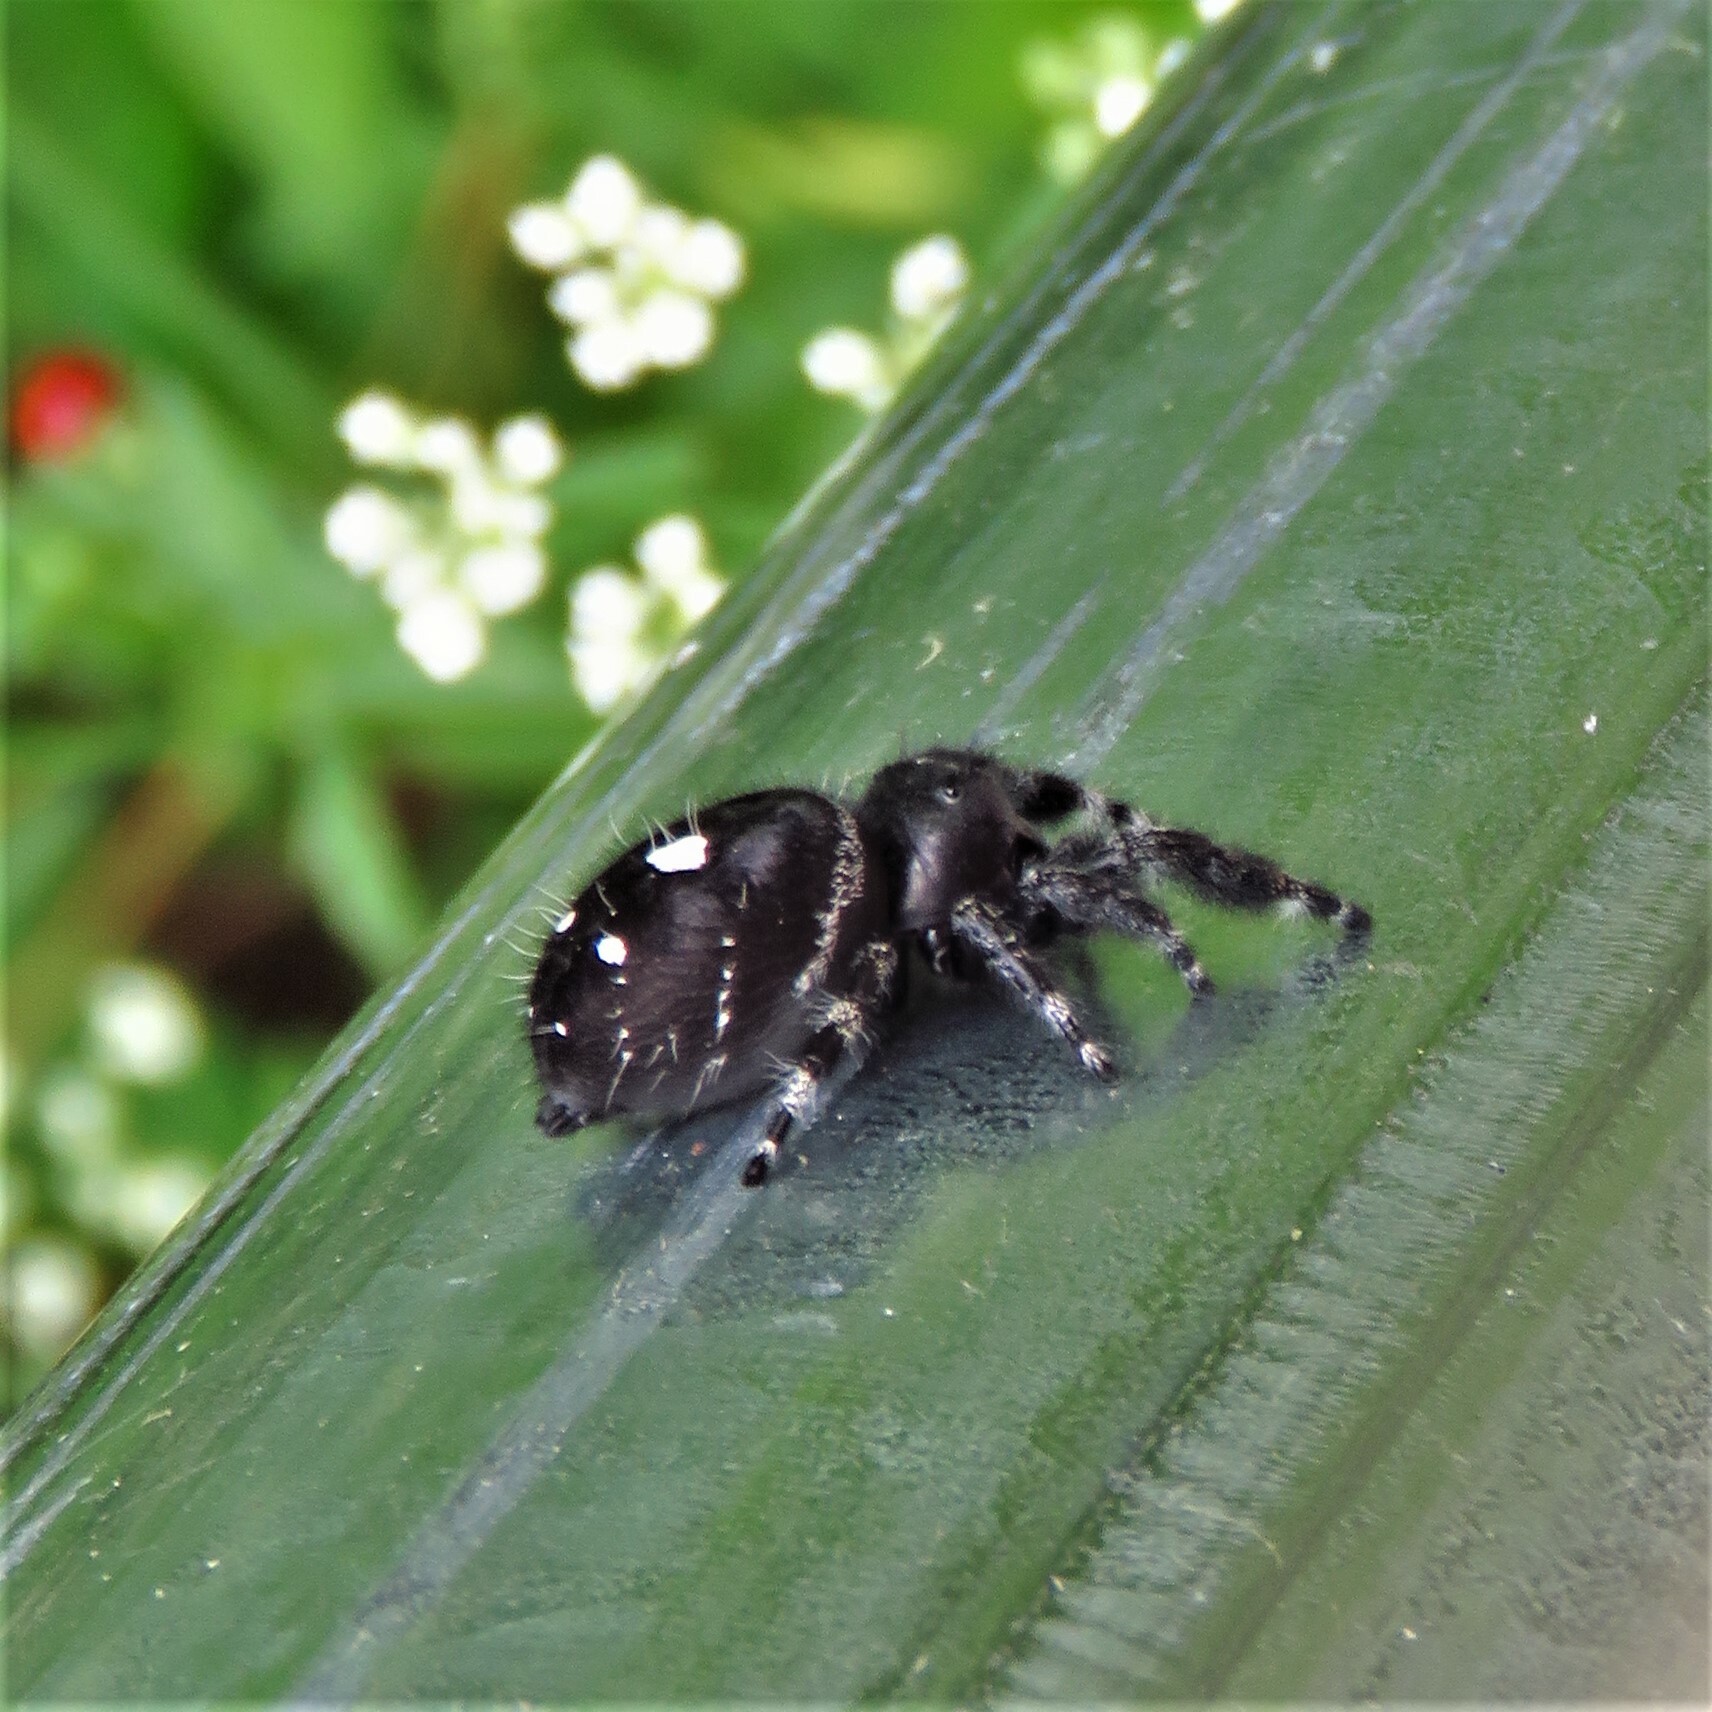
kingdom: Animalia
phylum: Arthropoda
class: Arachnida
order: Araneae
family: Salticidae
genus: Phidippus
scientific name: Phidippus audax
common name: Bold jumper
